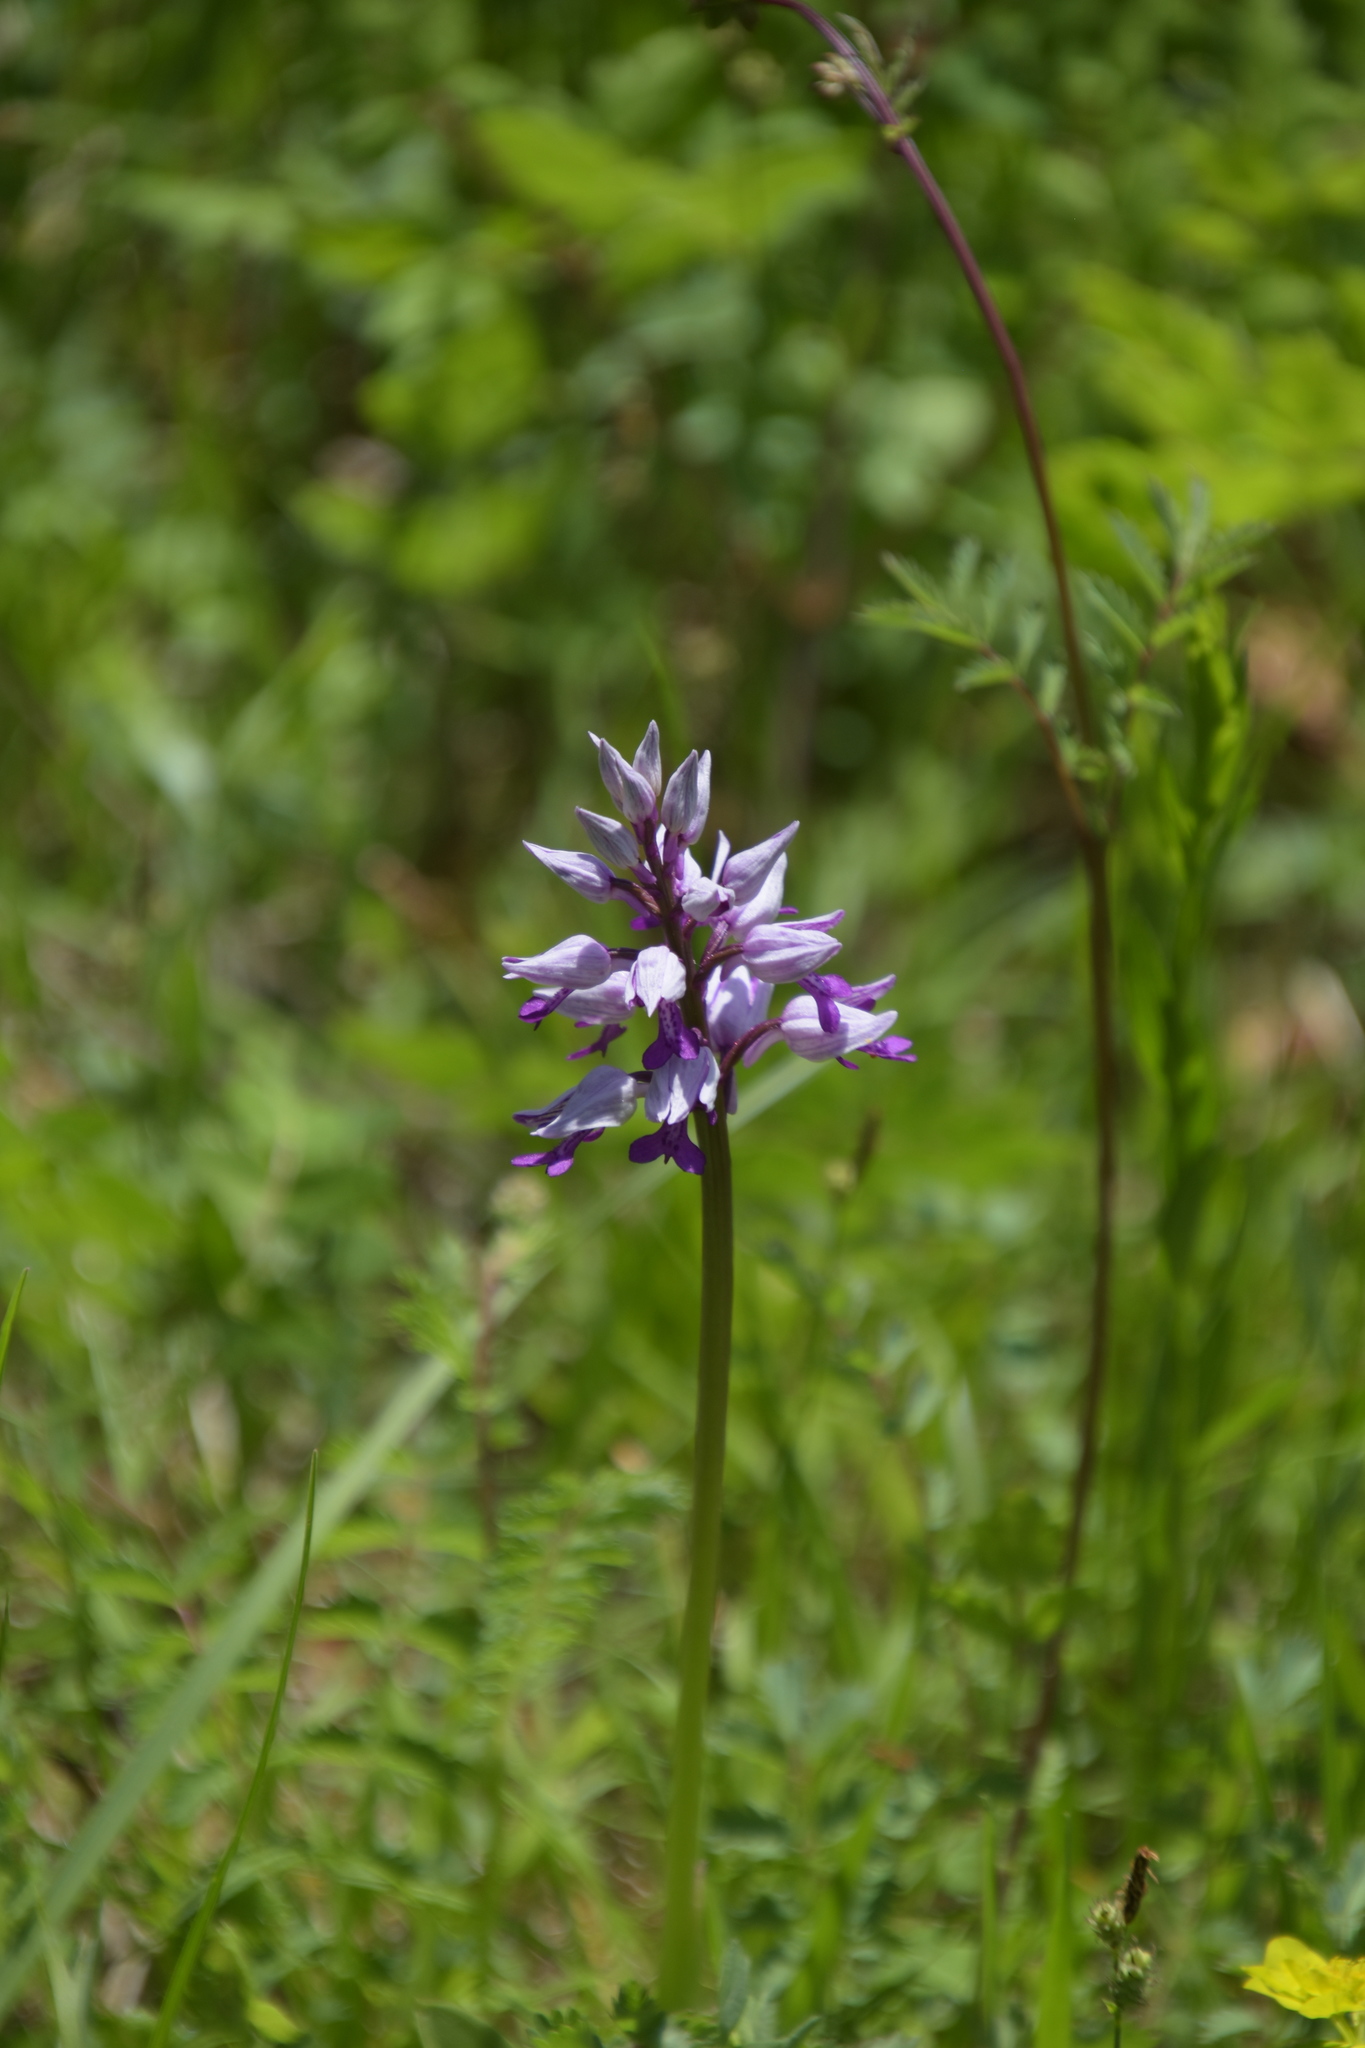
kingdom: Plantae
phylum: Tracheophyta
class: Liliopsida
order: Asparagales
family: Orchidaceae
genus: Orchis
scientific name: Orchis militaris
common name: Military orchid
